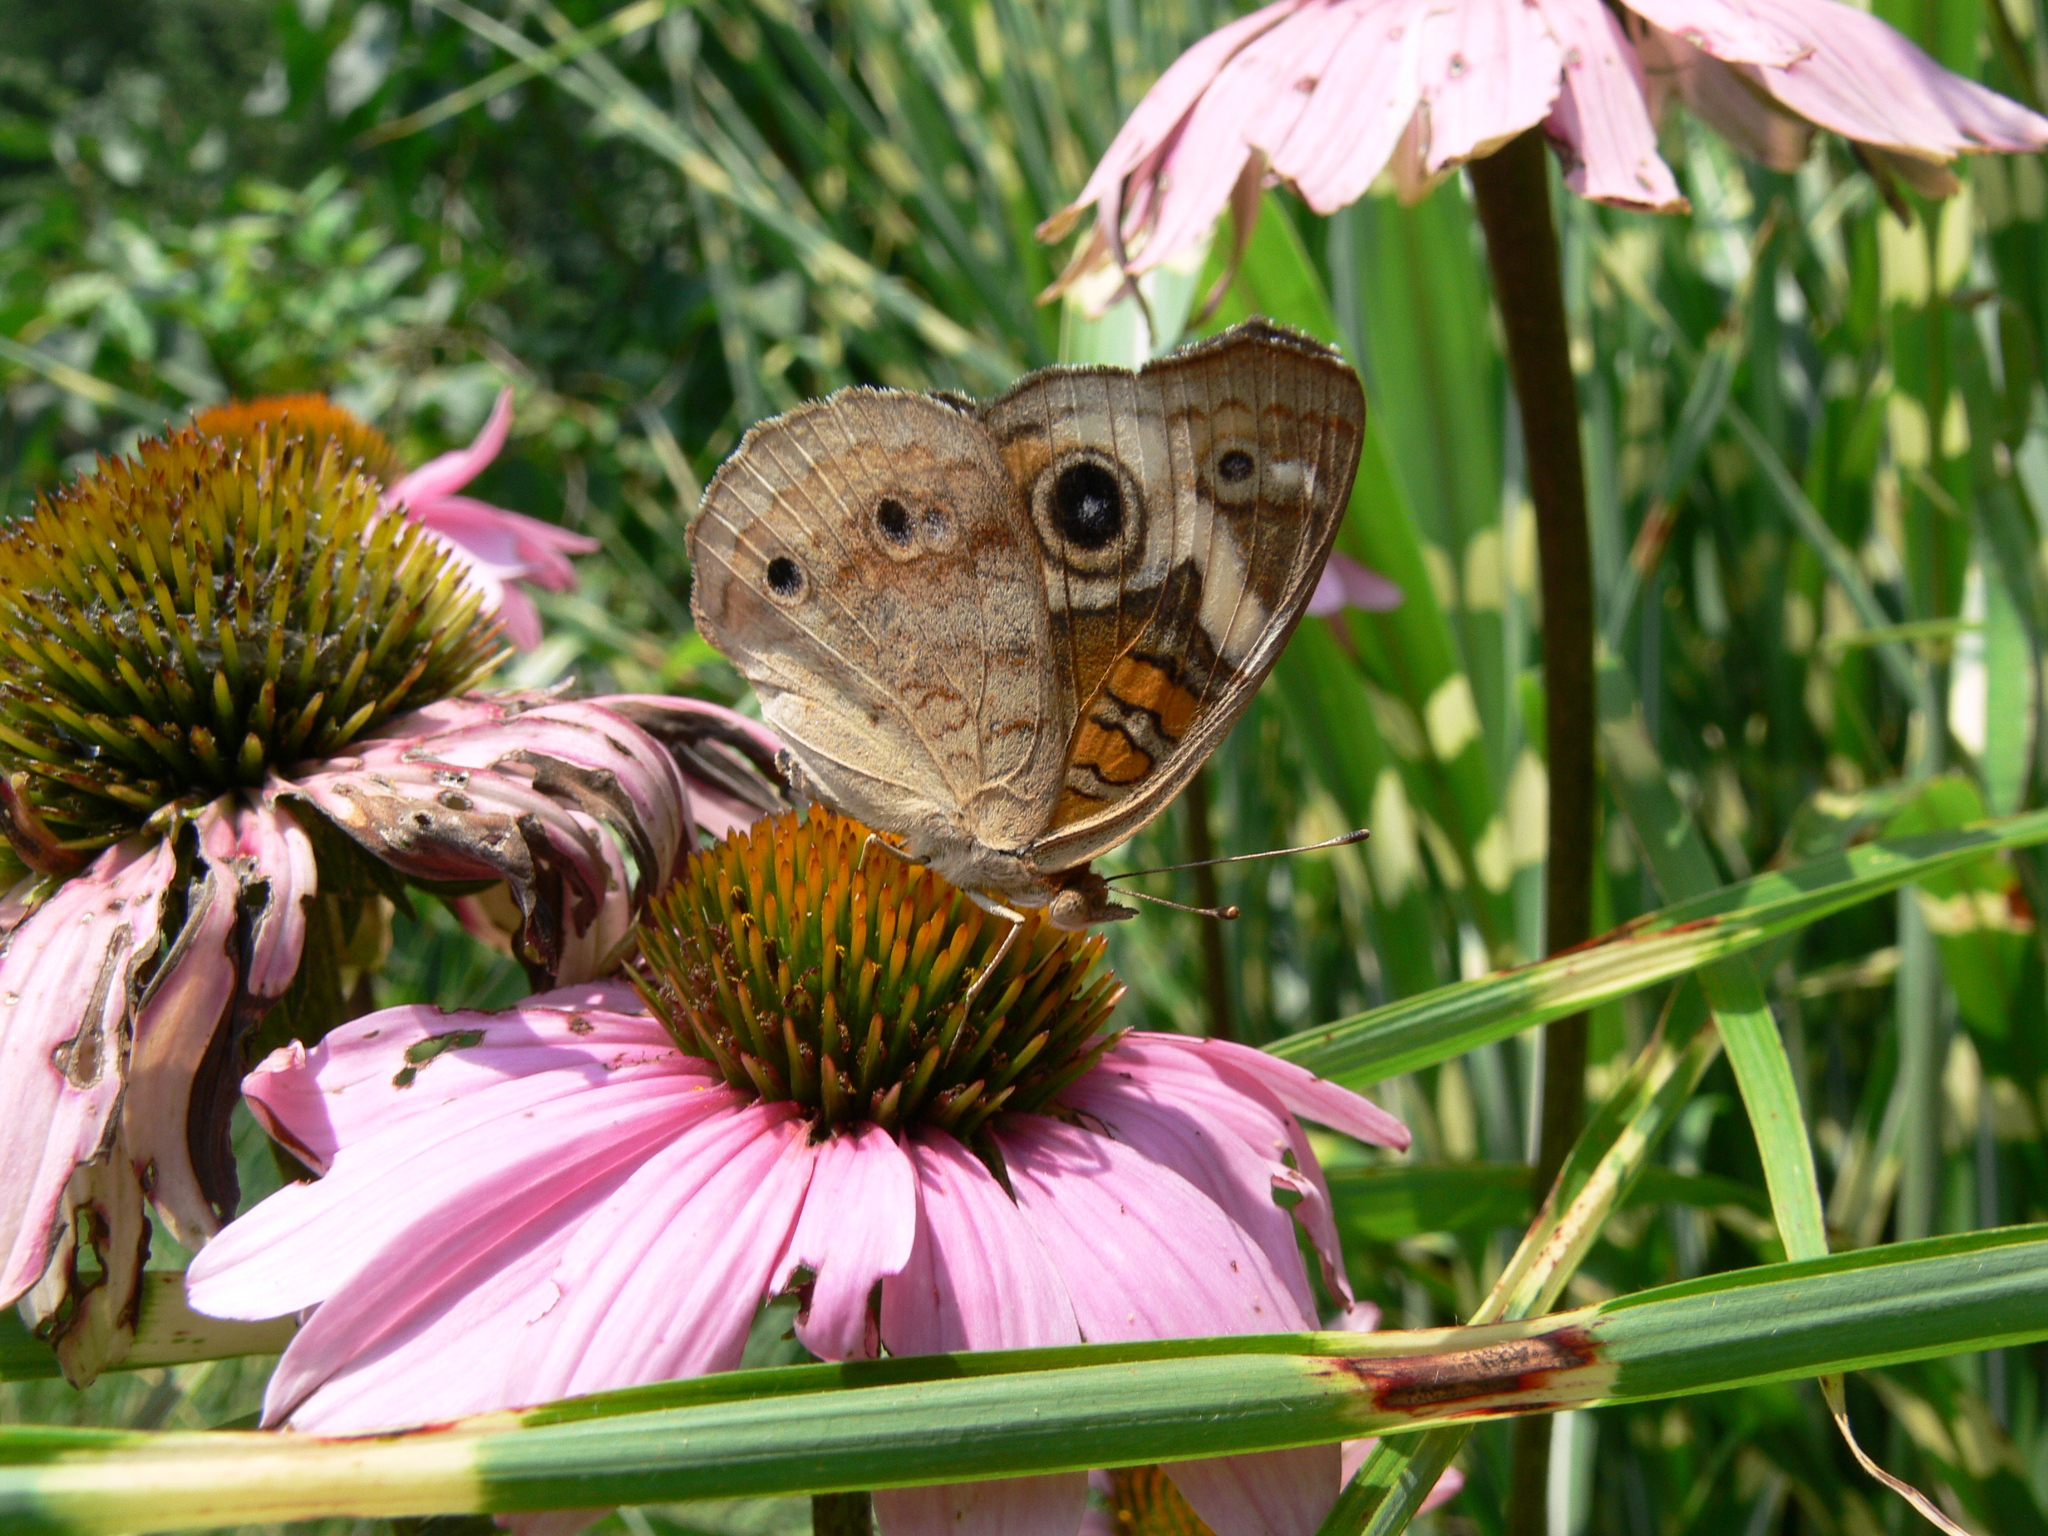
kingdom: Animalia
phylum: Arthropoda
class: Insecta
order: Lepidoptera
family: Nymphalidae
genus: Junonia
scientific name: Junonia coenia
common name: Common buckeye
